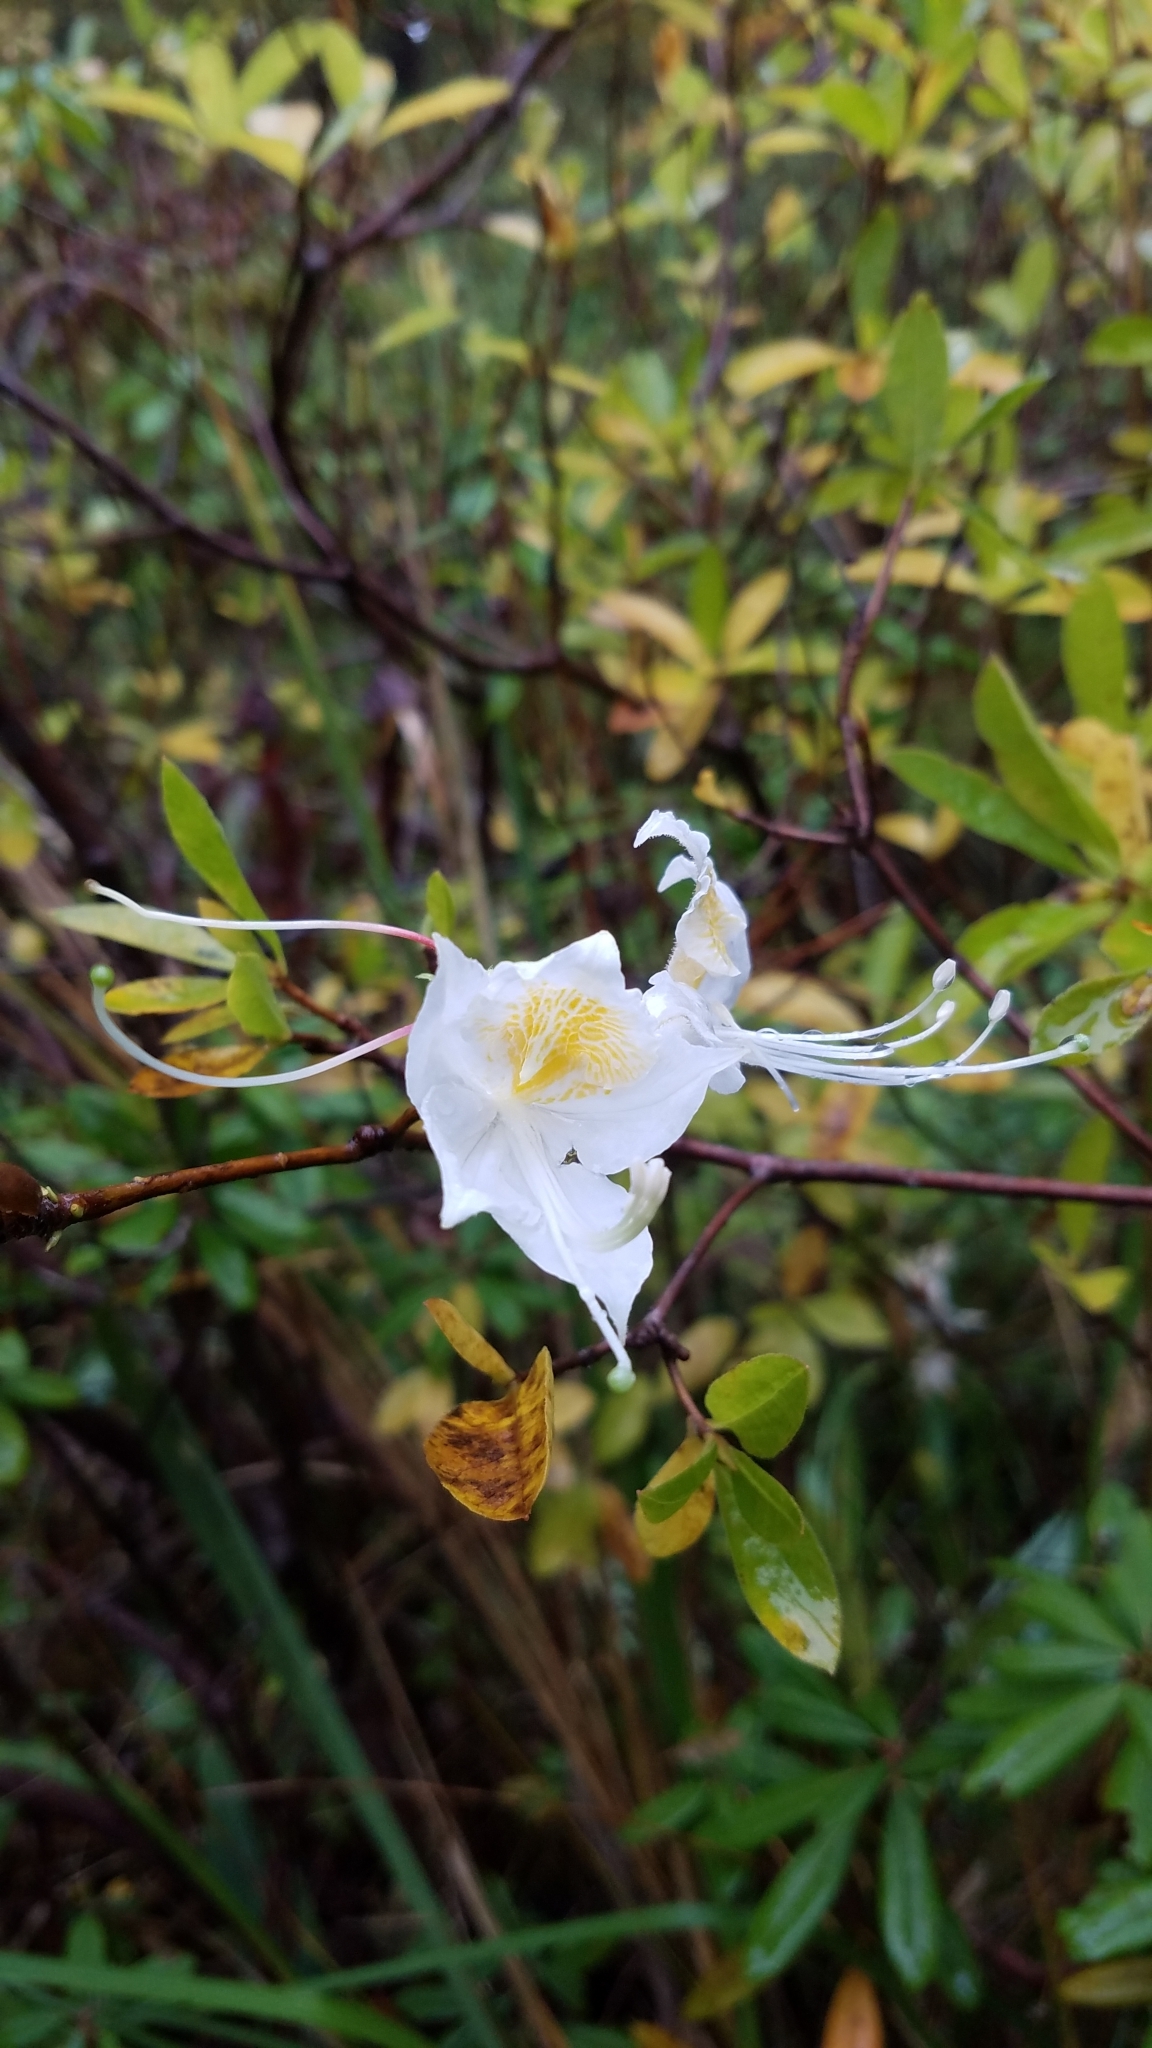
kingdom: Plantae
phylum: Tracheophyta
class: Magnoliopsida
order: Ericales
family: Ericaceae
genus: Rhododendron
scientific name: Rhododendron occidentale
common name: Western azalea
